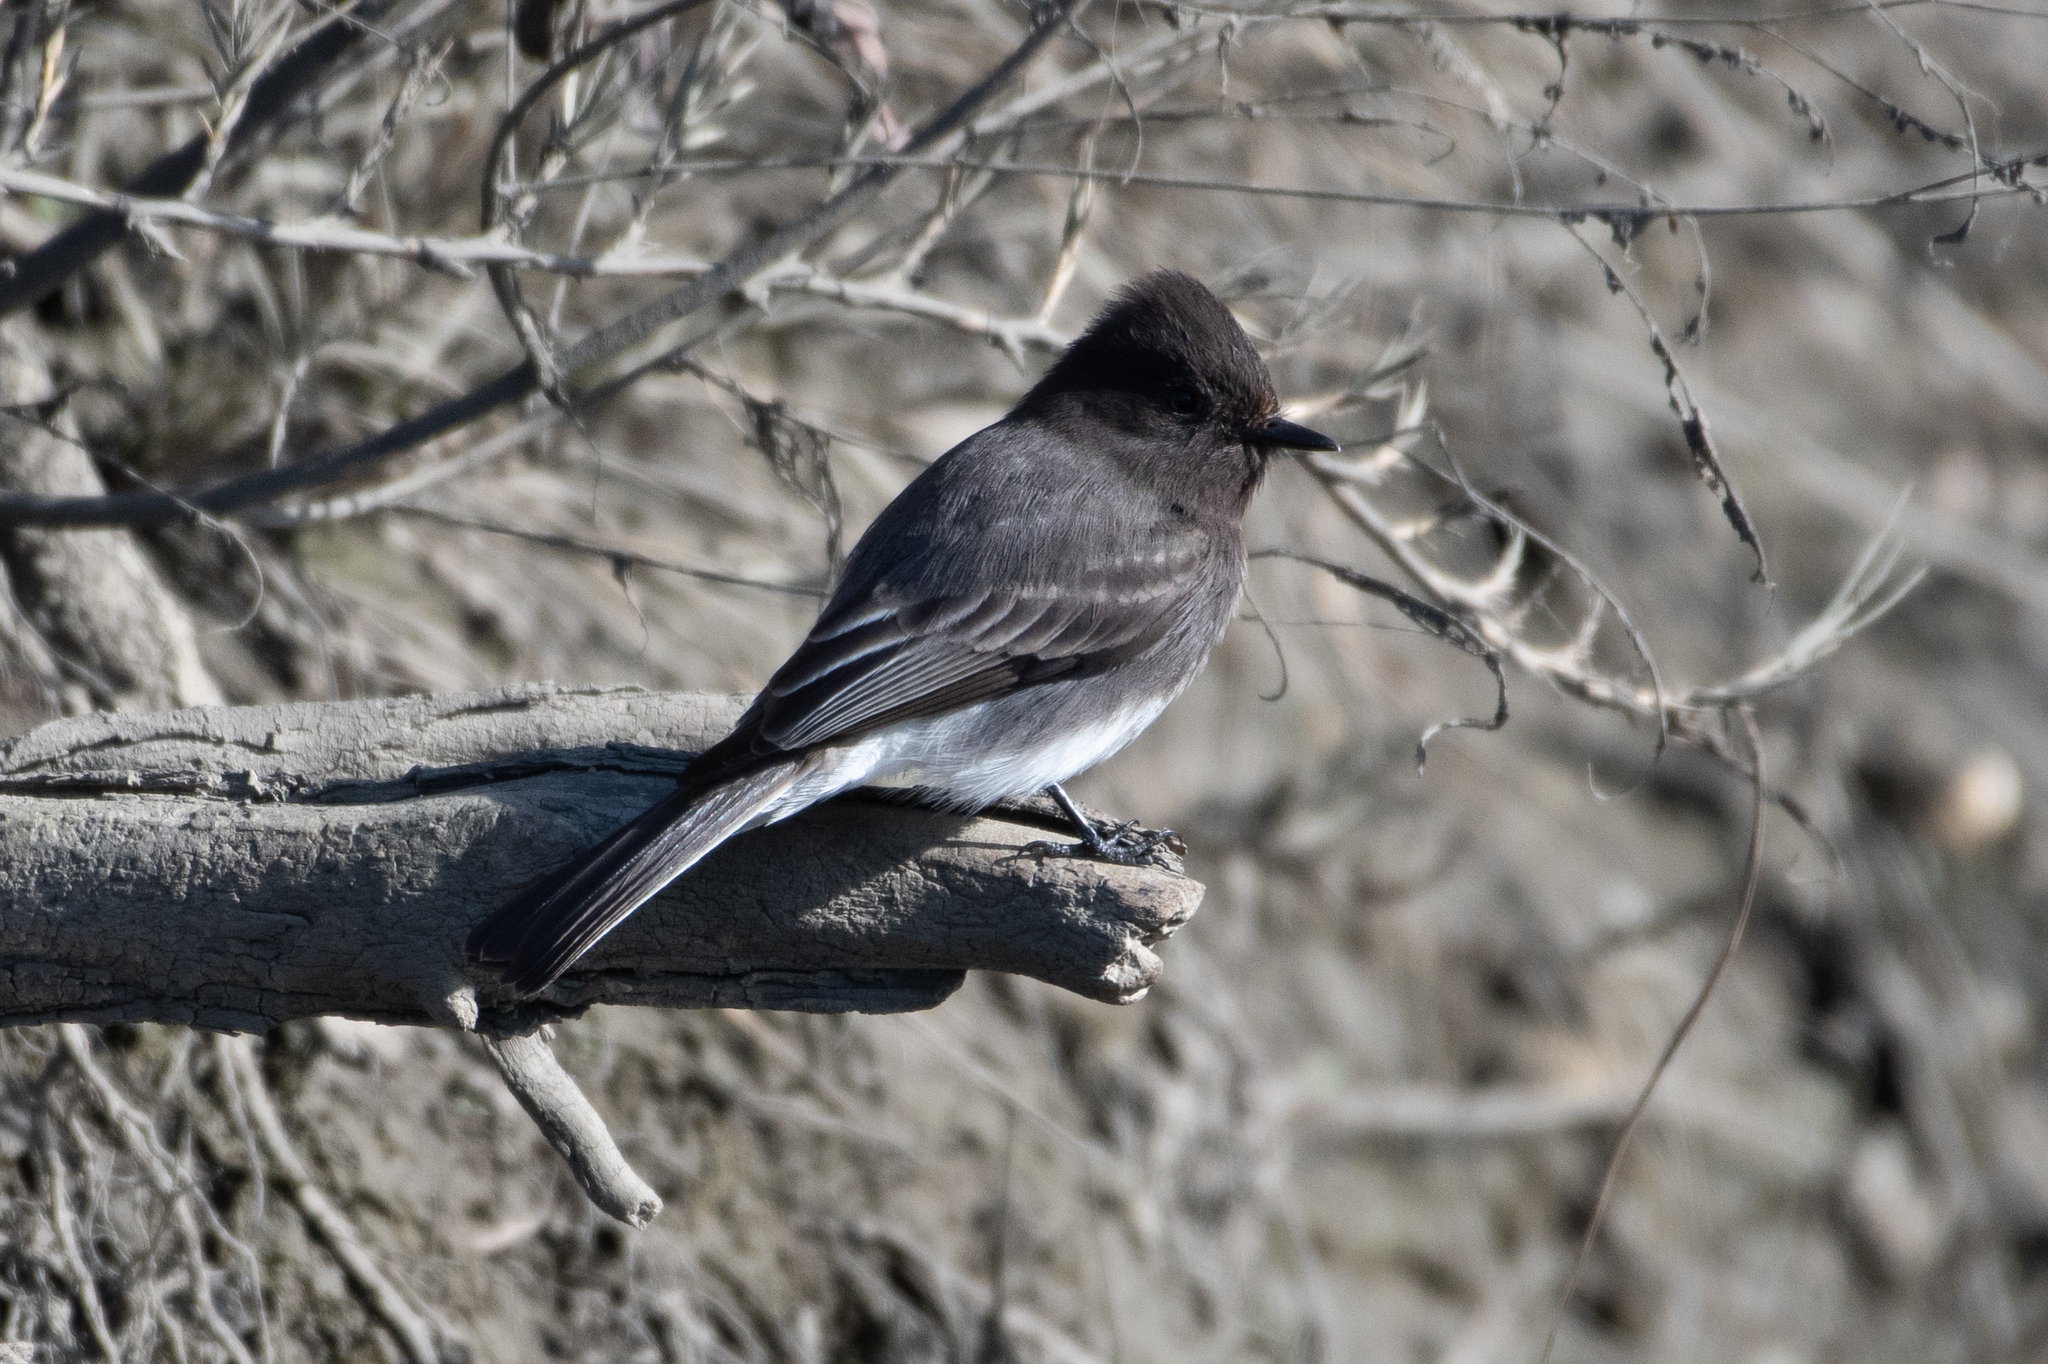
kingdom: Animalia
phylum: Chordata
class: Aves
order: Passeriformes
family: Tyrannidae
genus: Sayornis
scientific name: Sayornis nigricans
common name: Black phoebe
